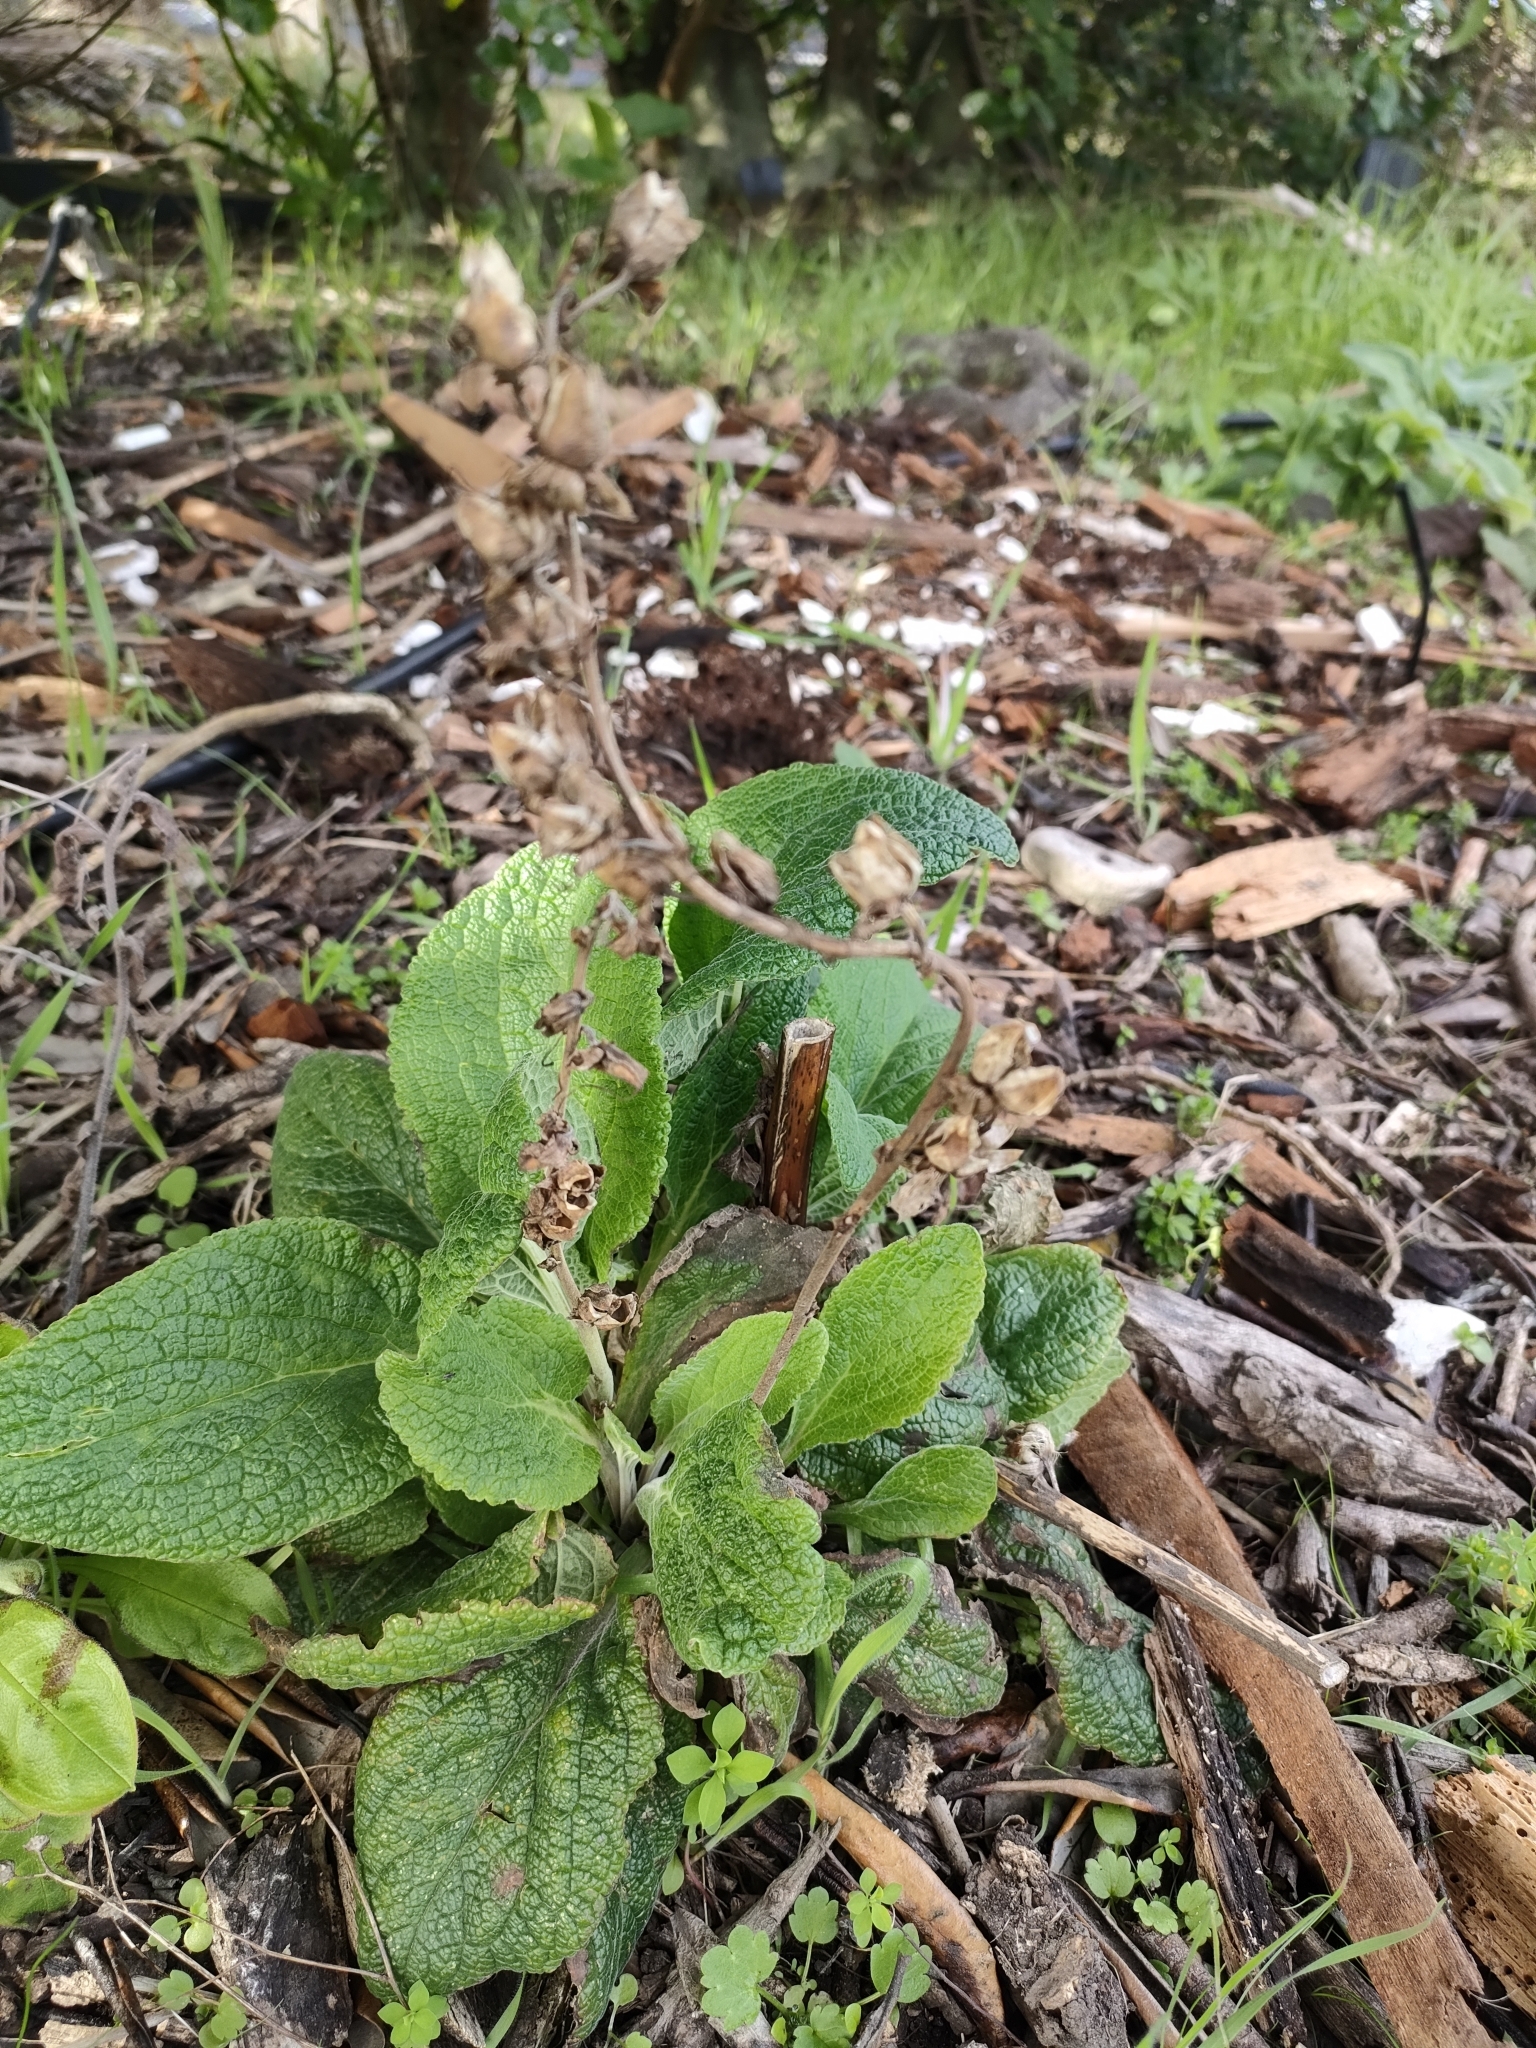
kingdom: Plantae
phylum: Tracheophyta
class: Magnoliopsida
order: Lamiales
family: Plantaginaceae
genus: Digitalis
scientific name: Digitalis purpurea
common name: Foxglove
